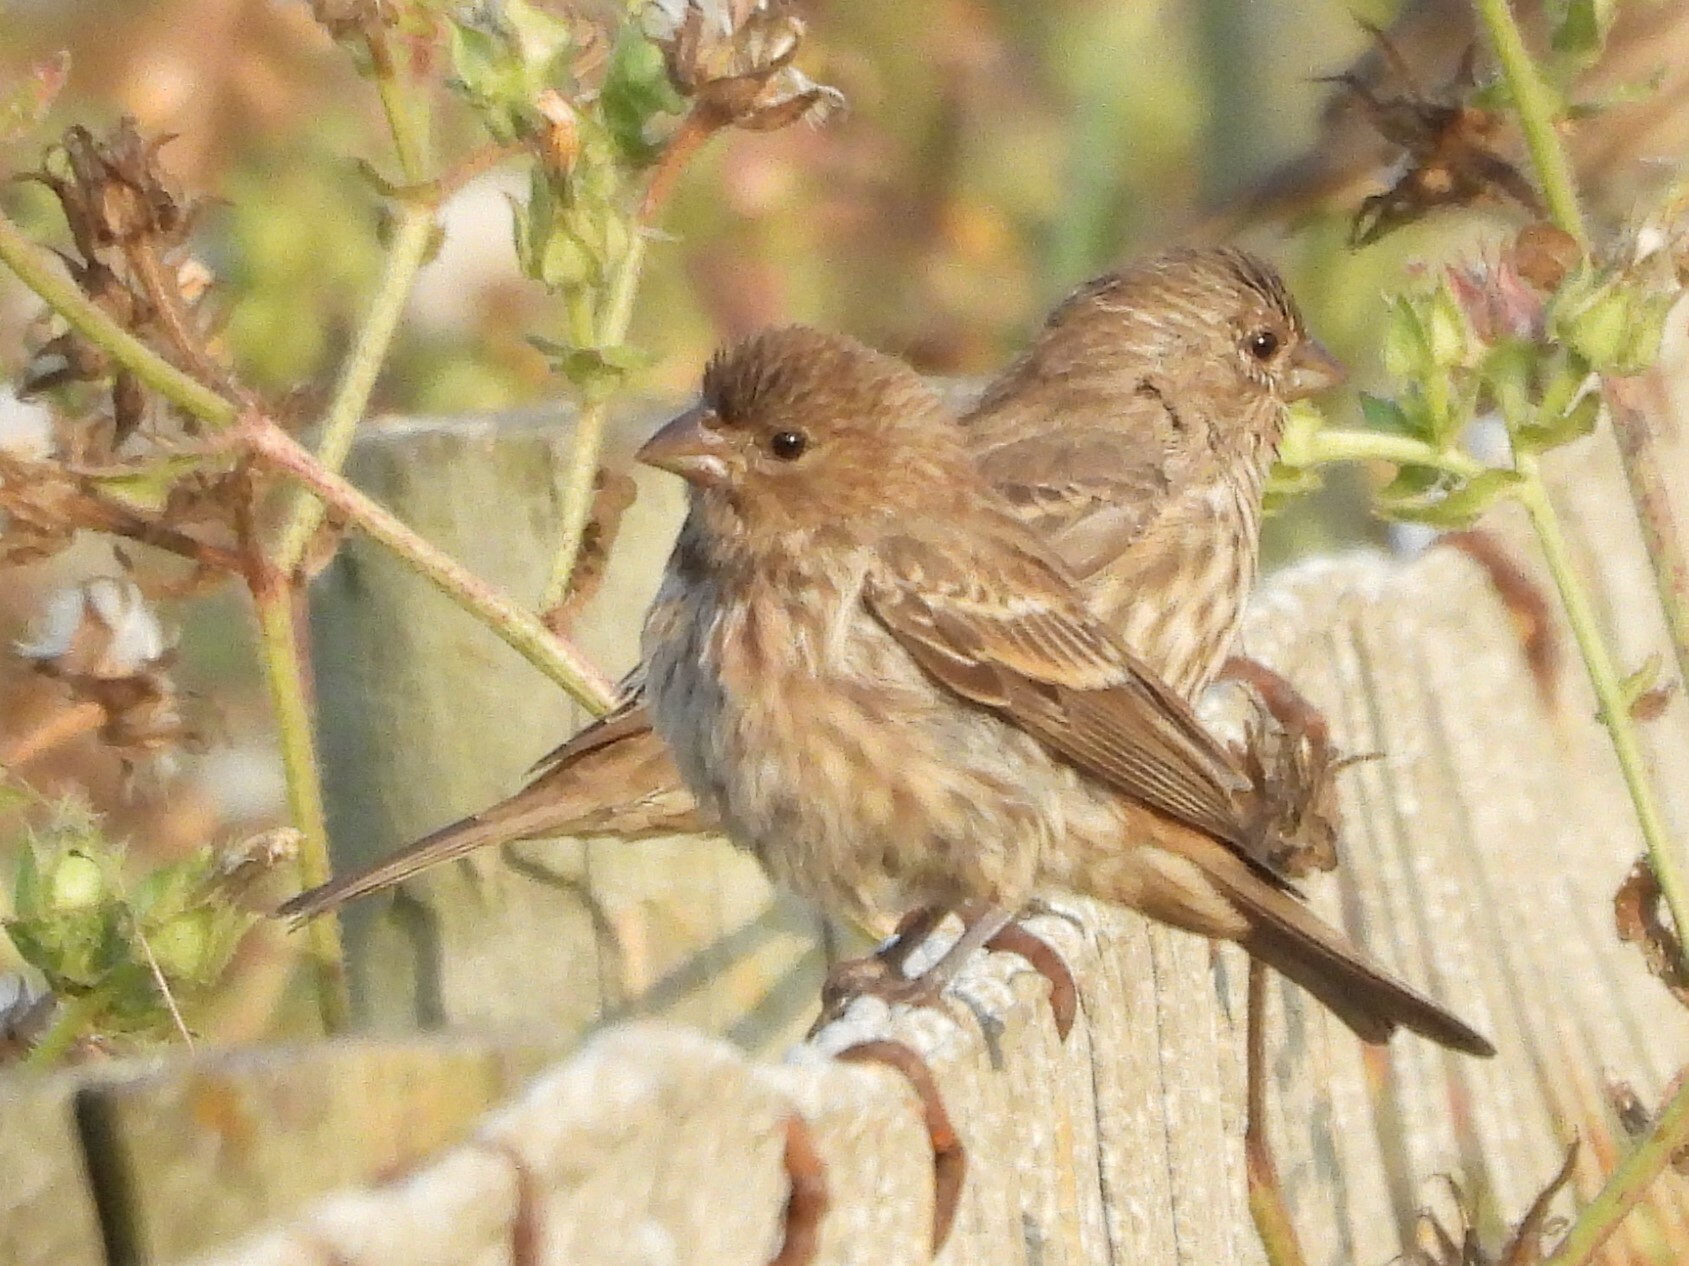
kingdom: Animalia
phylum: Chordata
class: Aves
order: Passeriformes
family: Fringillidae
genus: Haemorhous
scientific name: Haemorhous mexicanus
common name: House finch
